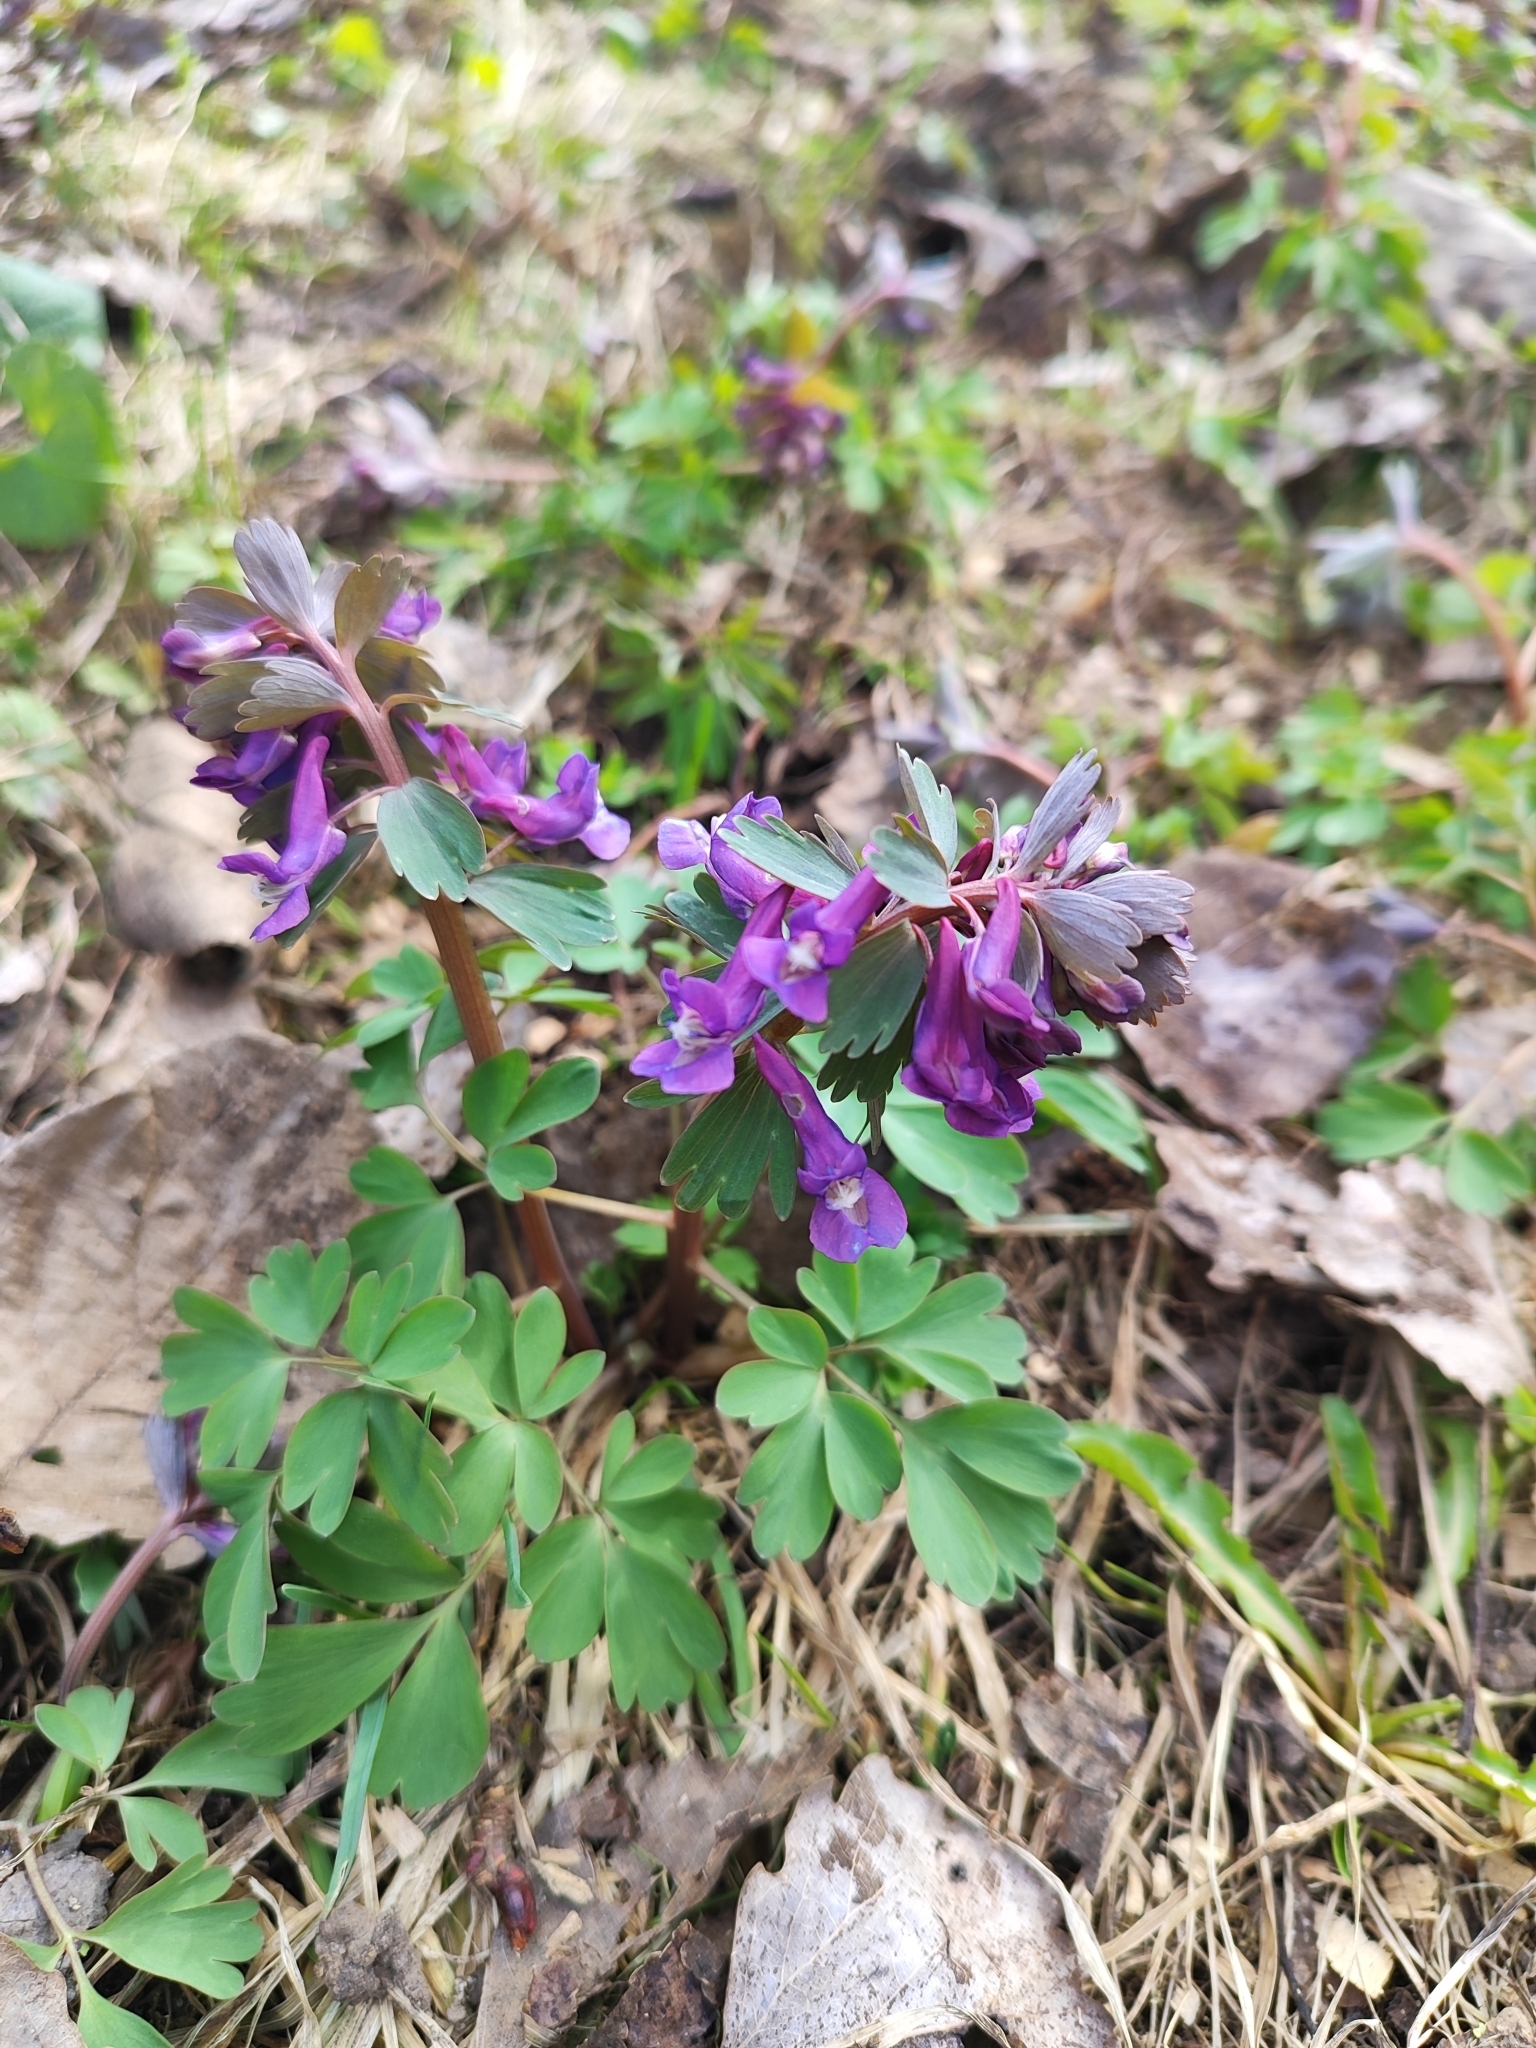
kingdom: Plantae
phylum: Tracheophyta
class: Magnoliopsida
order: Ranunculales
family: Papaveraceae
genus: Corydalis
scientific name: Corydalis solida
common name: Bird-in-a-bush
